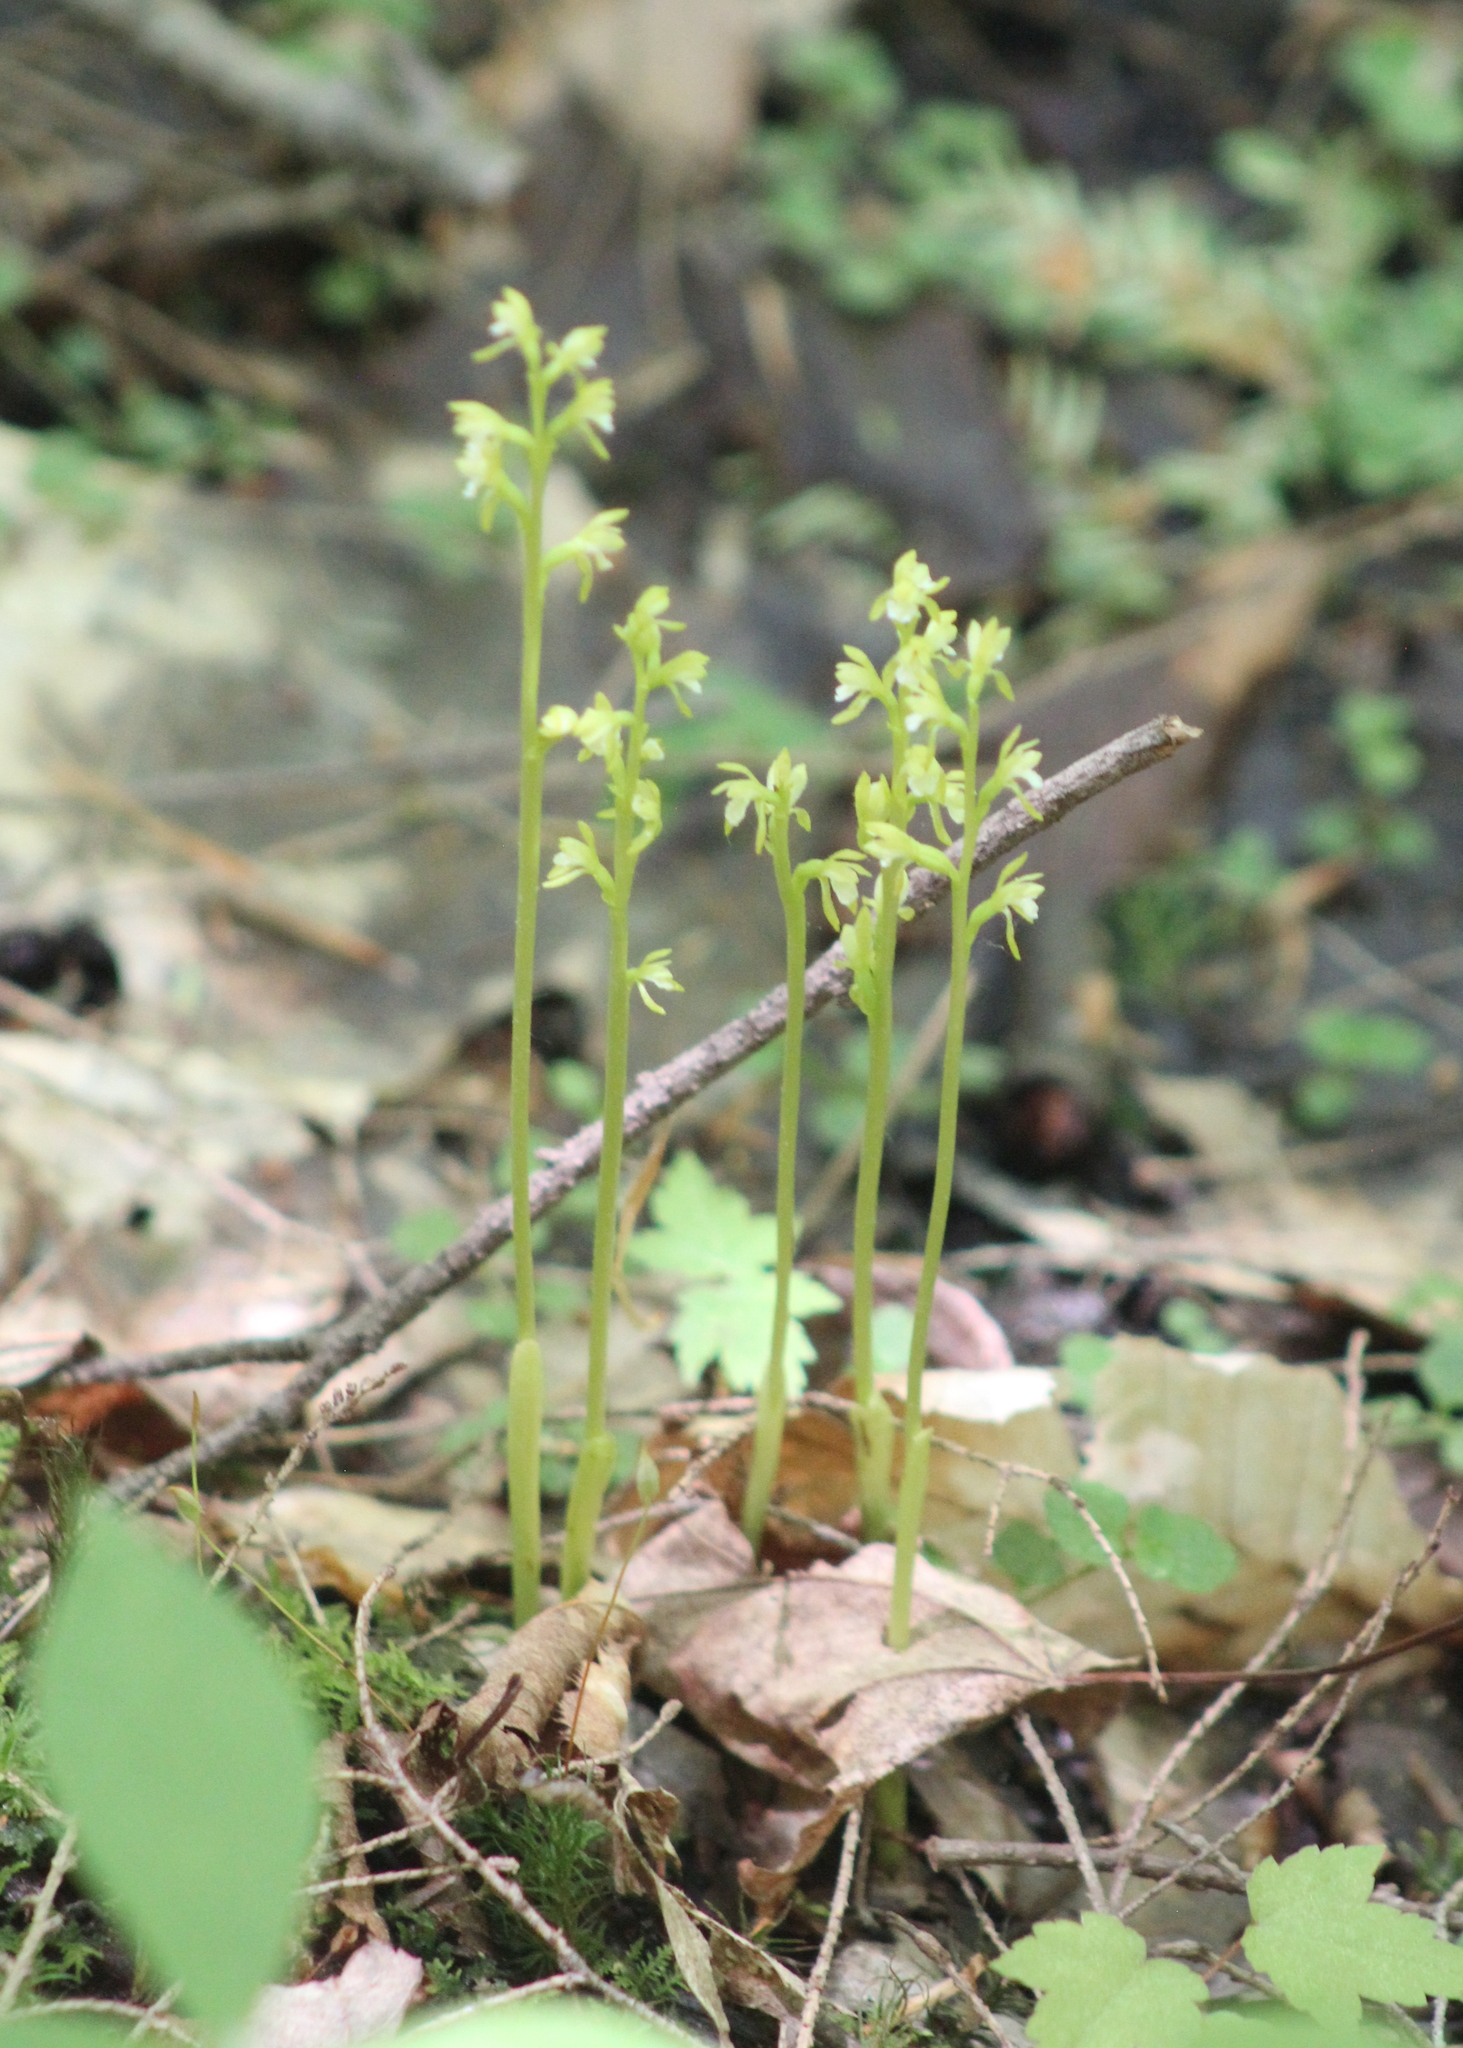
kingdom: Plantae
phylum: Tracheophyta
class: Liliopsida
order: Asparagales
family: Orchidaceae
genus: Corallorhiza
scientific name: Corallorhiza trifida
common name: Yellow coralroot
